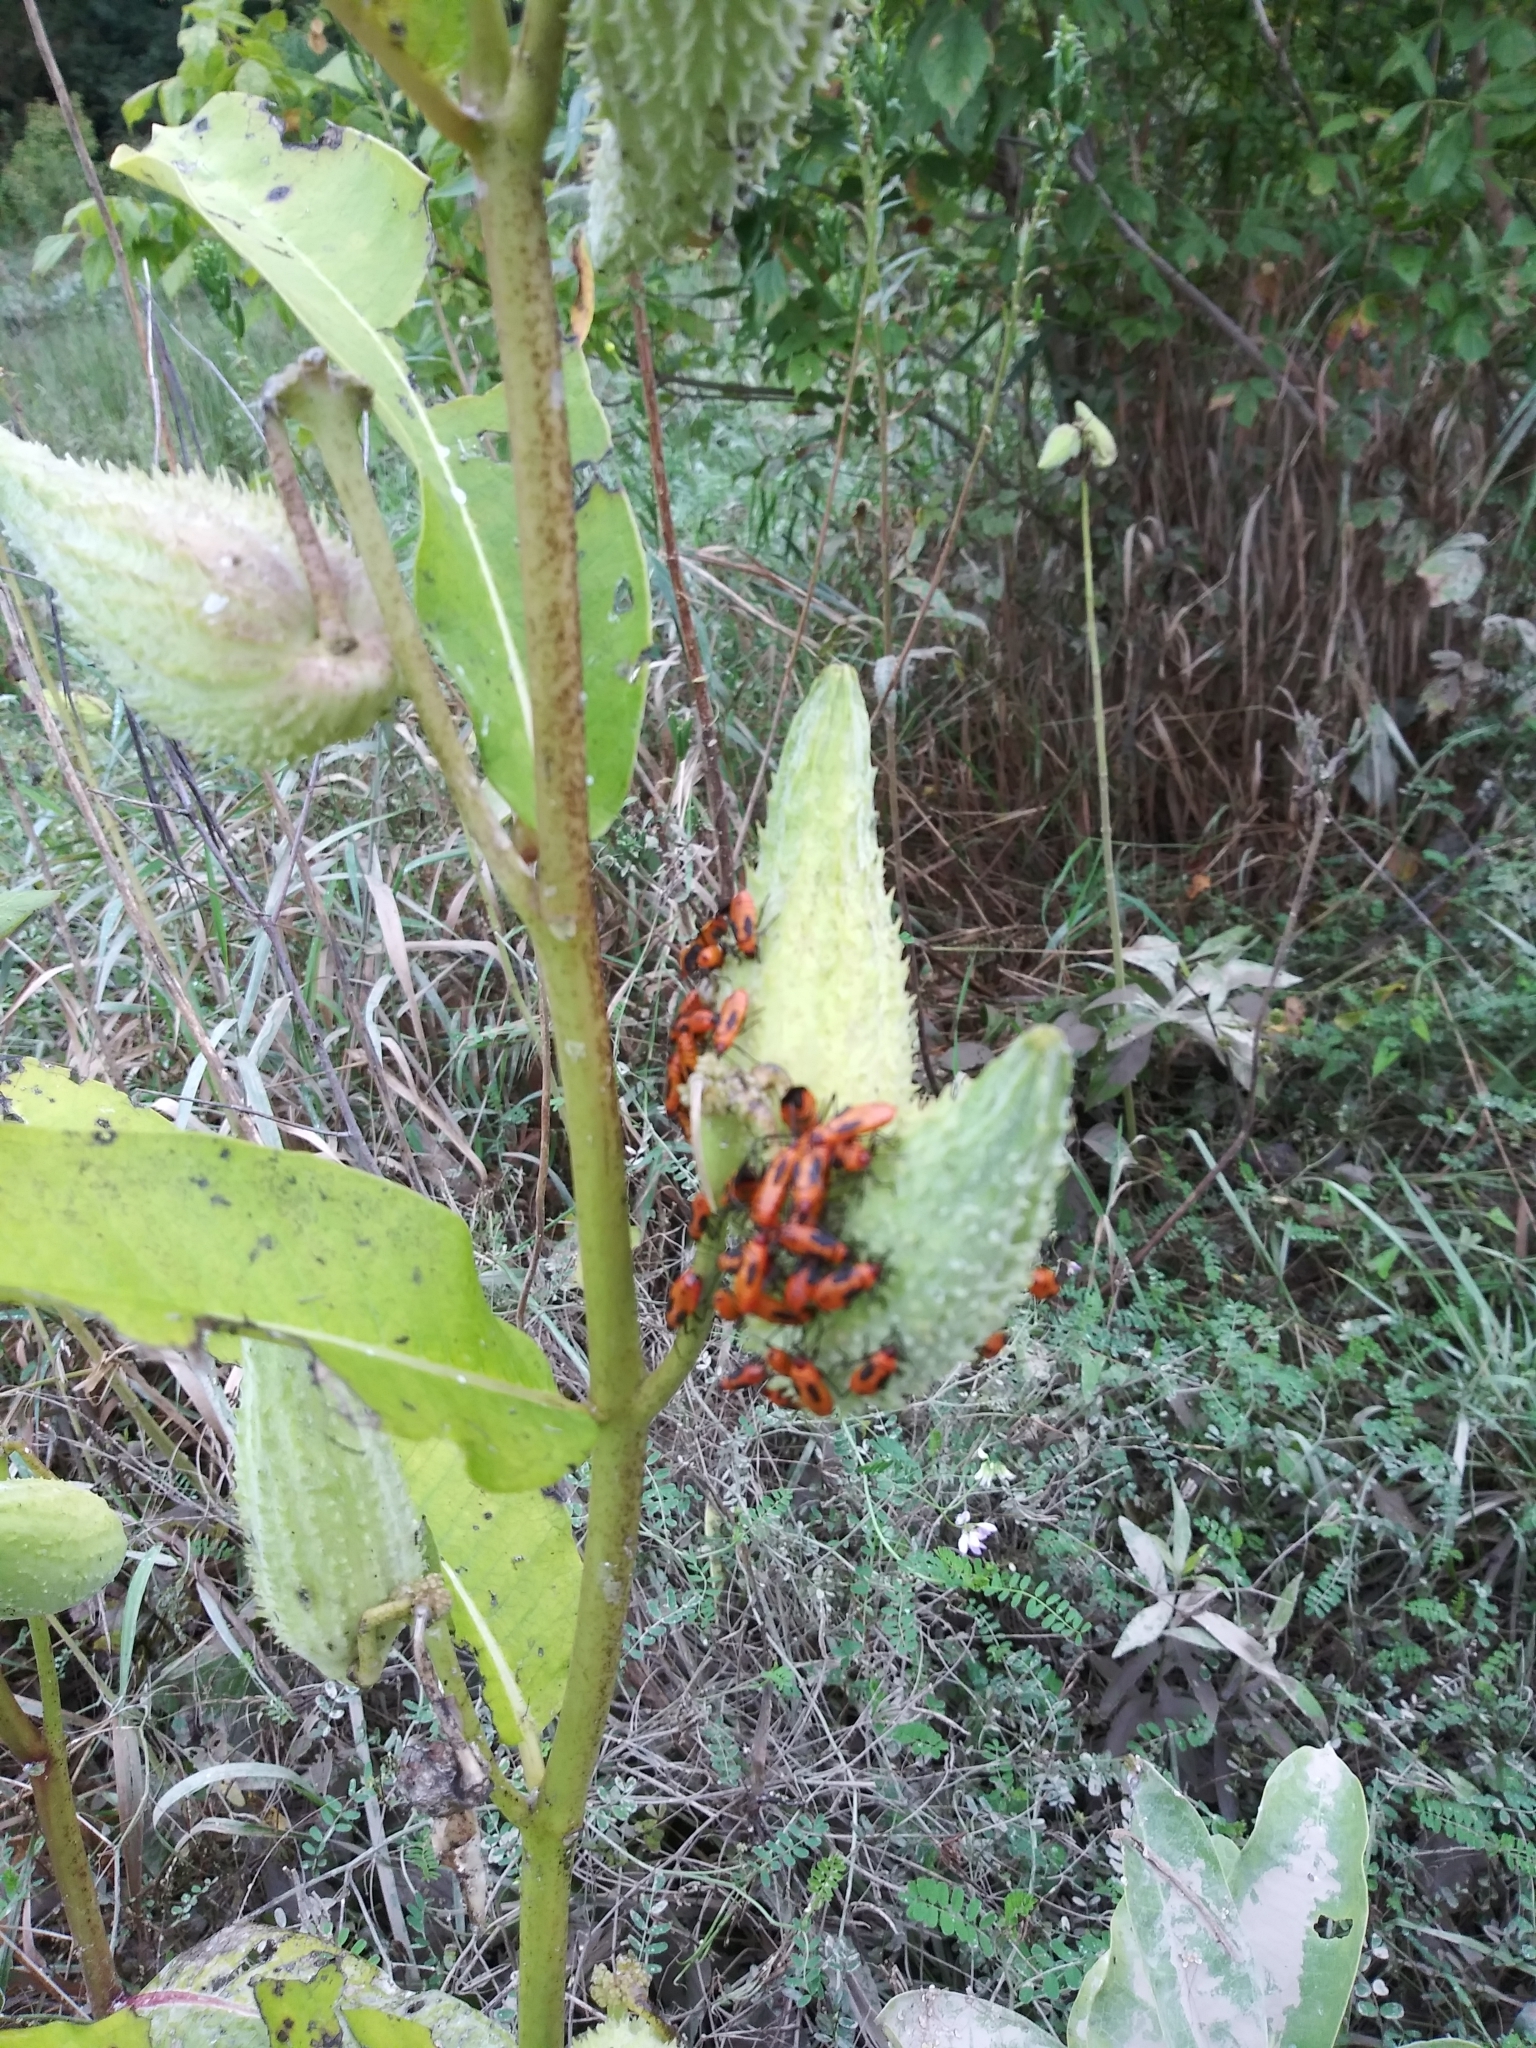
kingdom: Animalia
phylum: Arthropoda
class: Insecta
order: Hemiptera
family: Lygaeidae
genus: Oncopeltus
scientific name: Oncopeltus fasciatus
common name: Large milkweed bug
